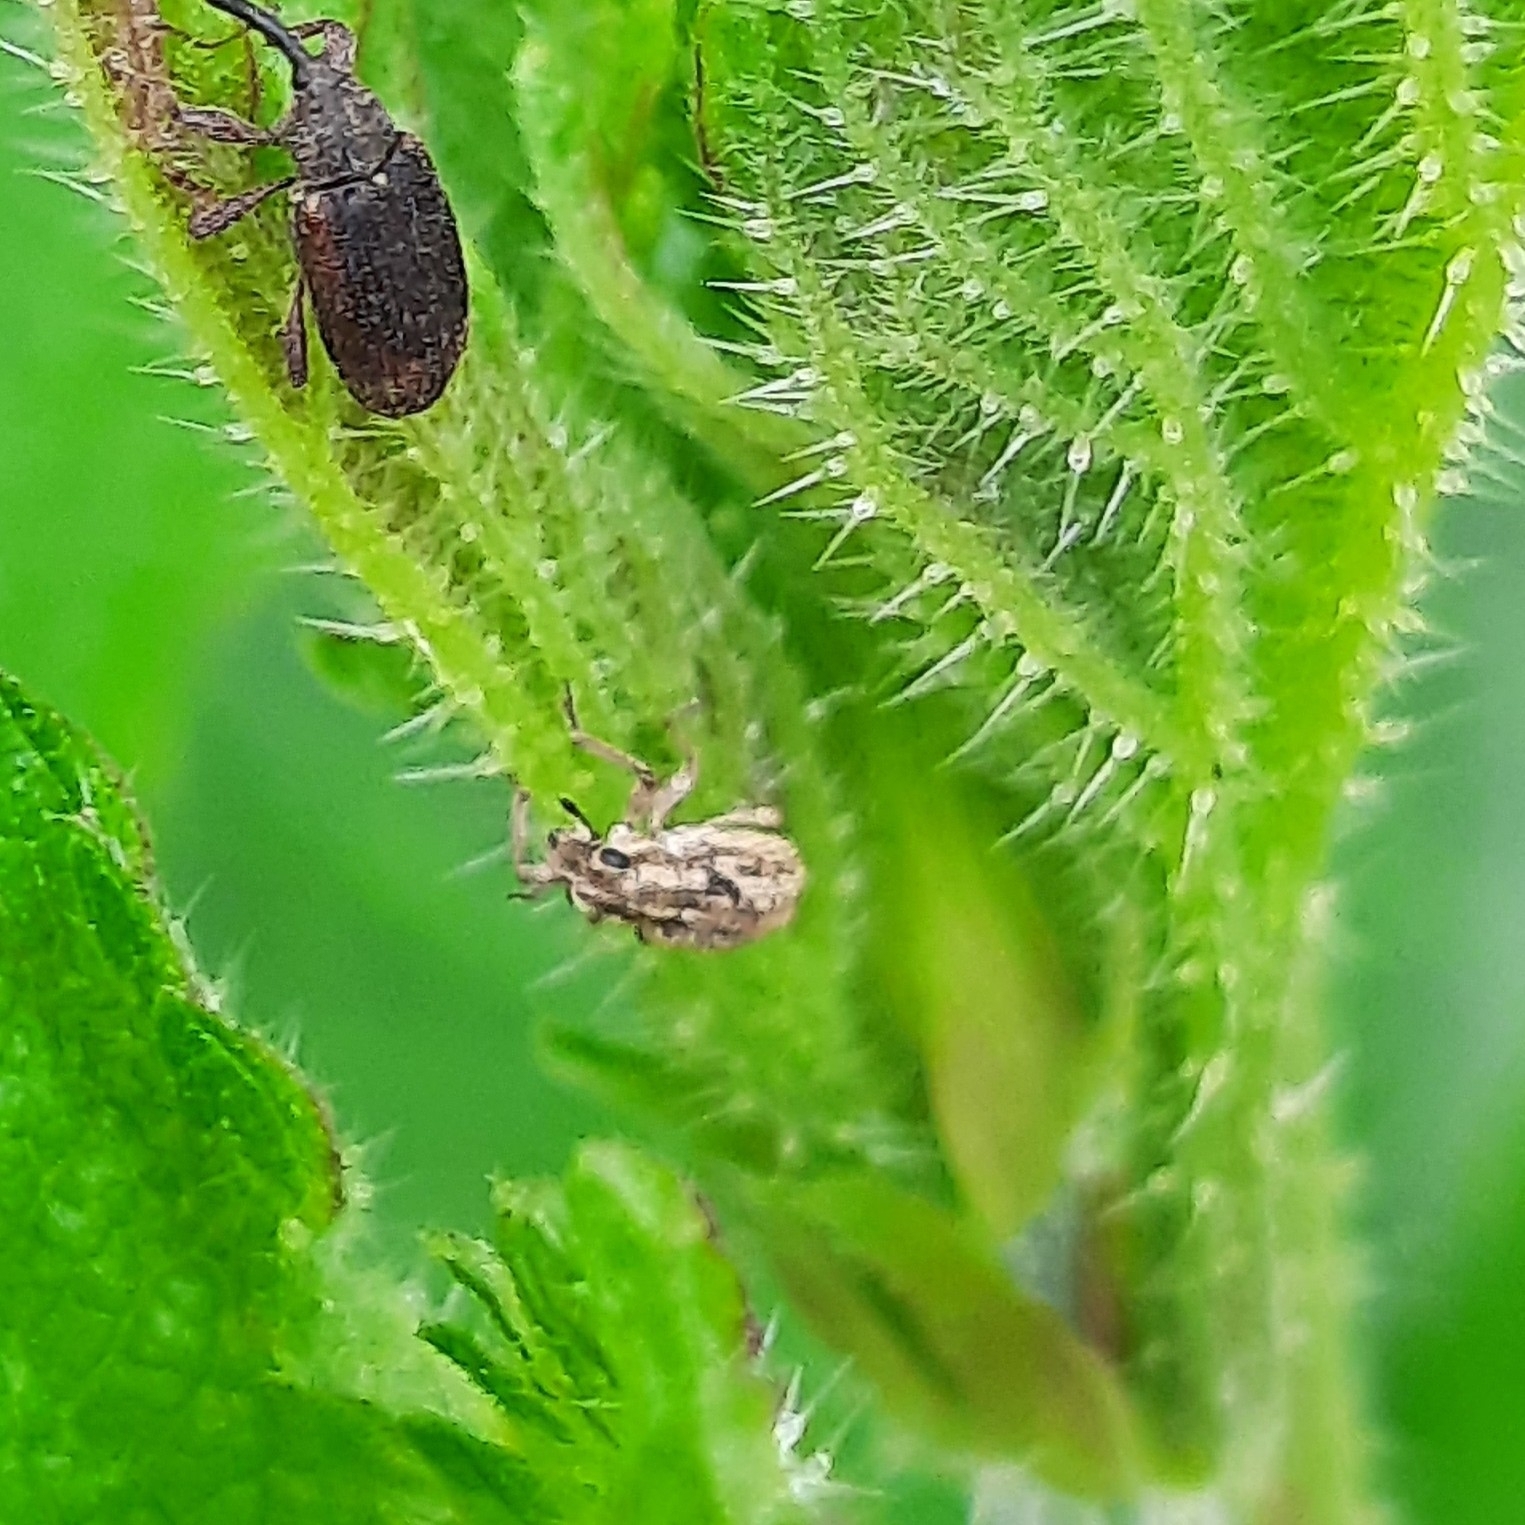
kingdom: Animalia
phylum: Arthropoda
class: Insecta
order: Coleoptera
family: Curculionidae
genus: Sitona
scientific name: Sitona macularius
